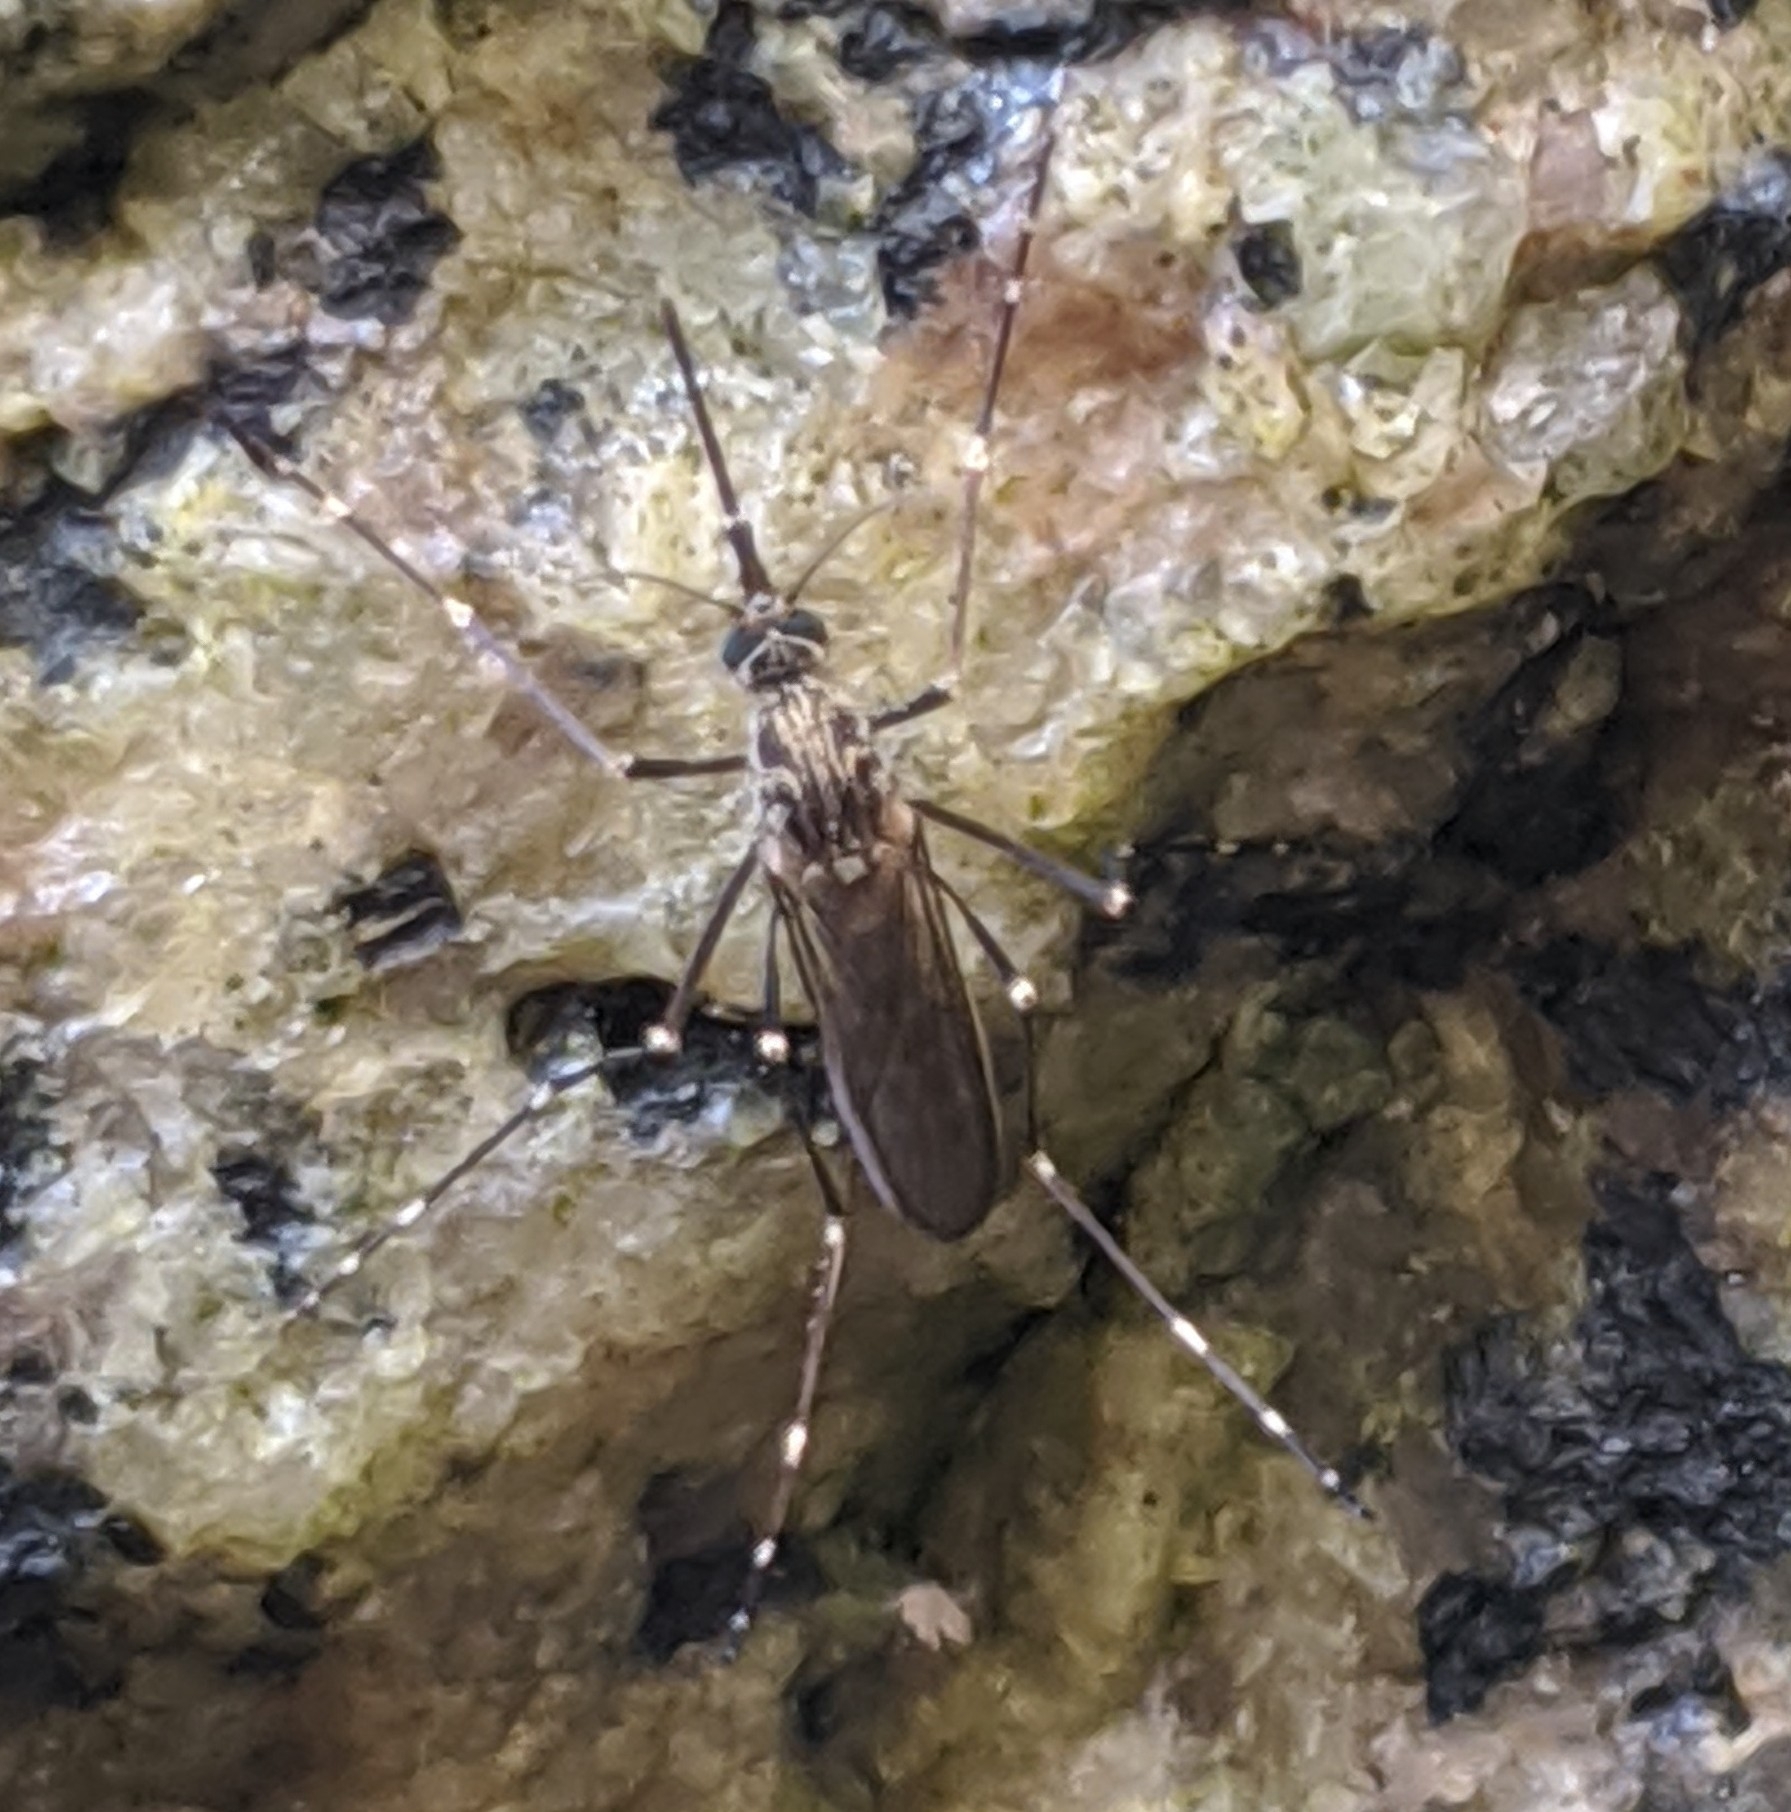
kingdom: Animalia
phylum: Arthropoda
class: Insecta
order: Diptera
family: Culicidae
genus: Aedes
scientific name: Aedes togoi
